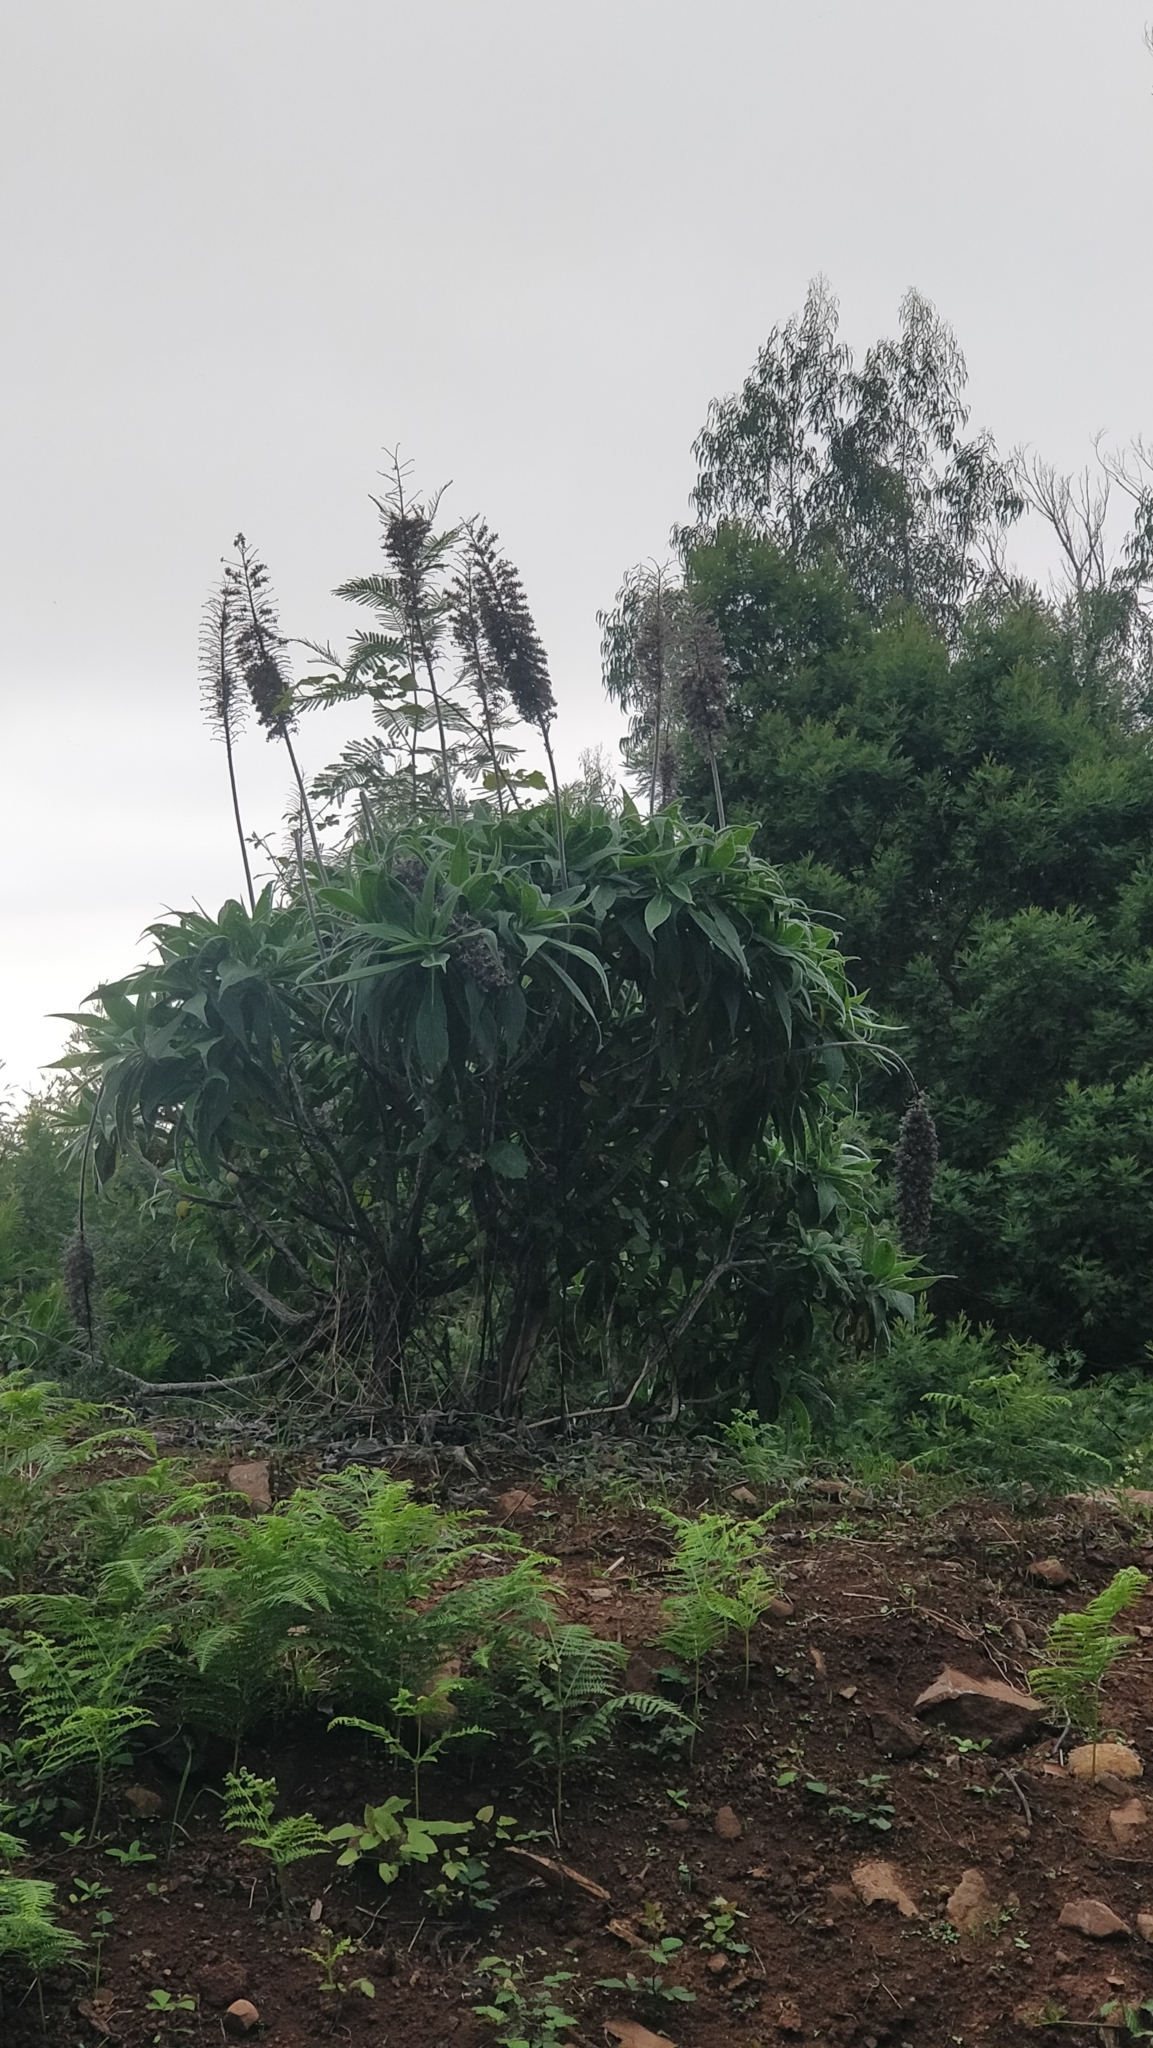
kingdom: Plantae
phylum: Tracheophyta
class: Magnoliopsida
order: Boraginales
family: Boraginaceae
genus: Echium
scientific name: Echium candicans
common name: Pride of madeira
